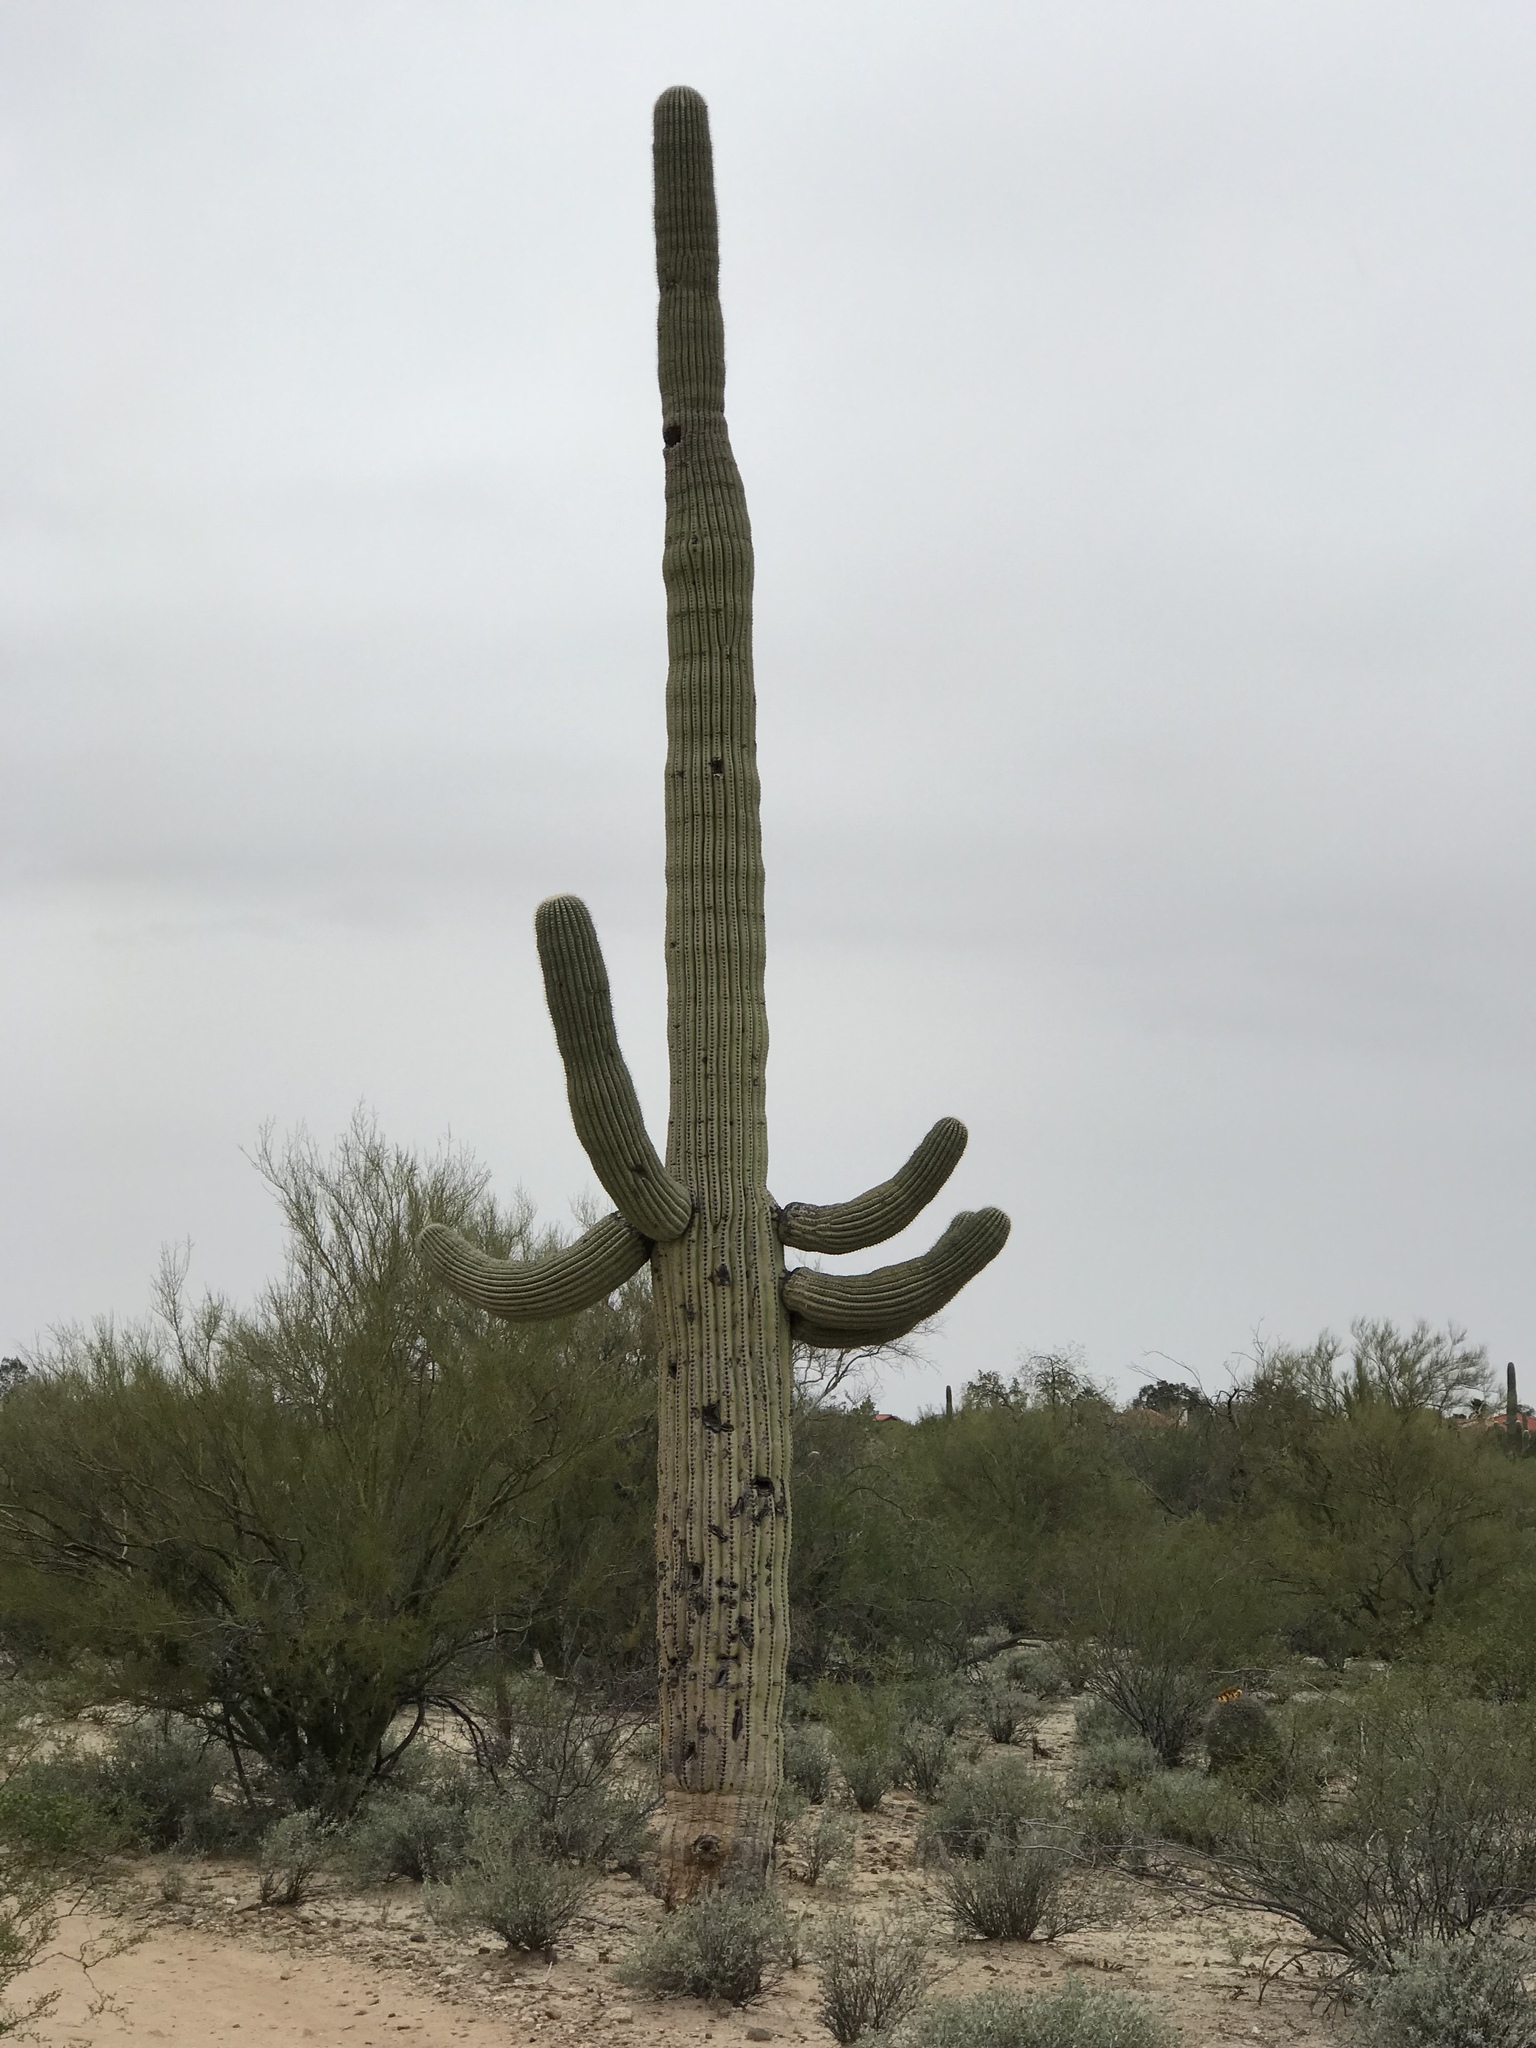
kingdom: Plantae
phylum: Tracheophyta
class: Magnoliopsida
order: Caryophyllales
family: Cactaceae
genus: Carnegiea
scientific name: Carnegiea gigantea
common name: Saguaro
